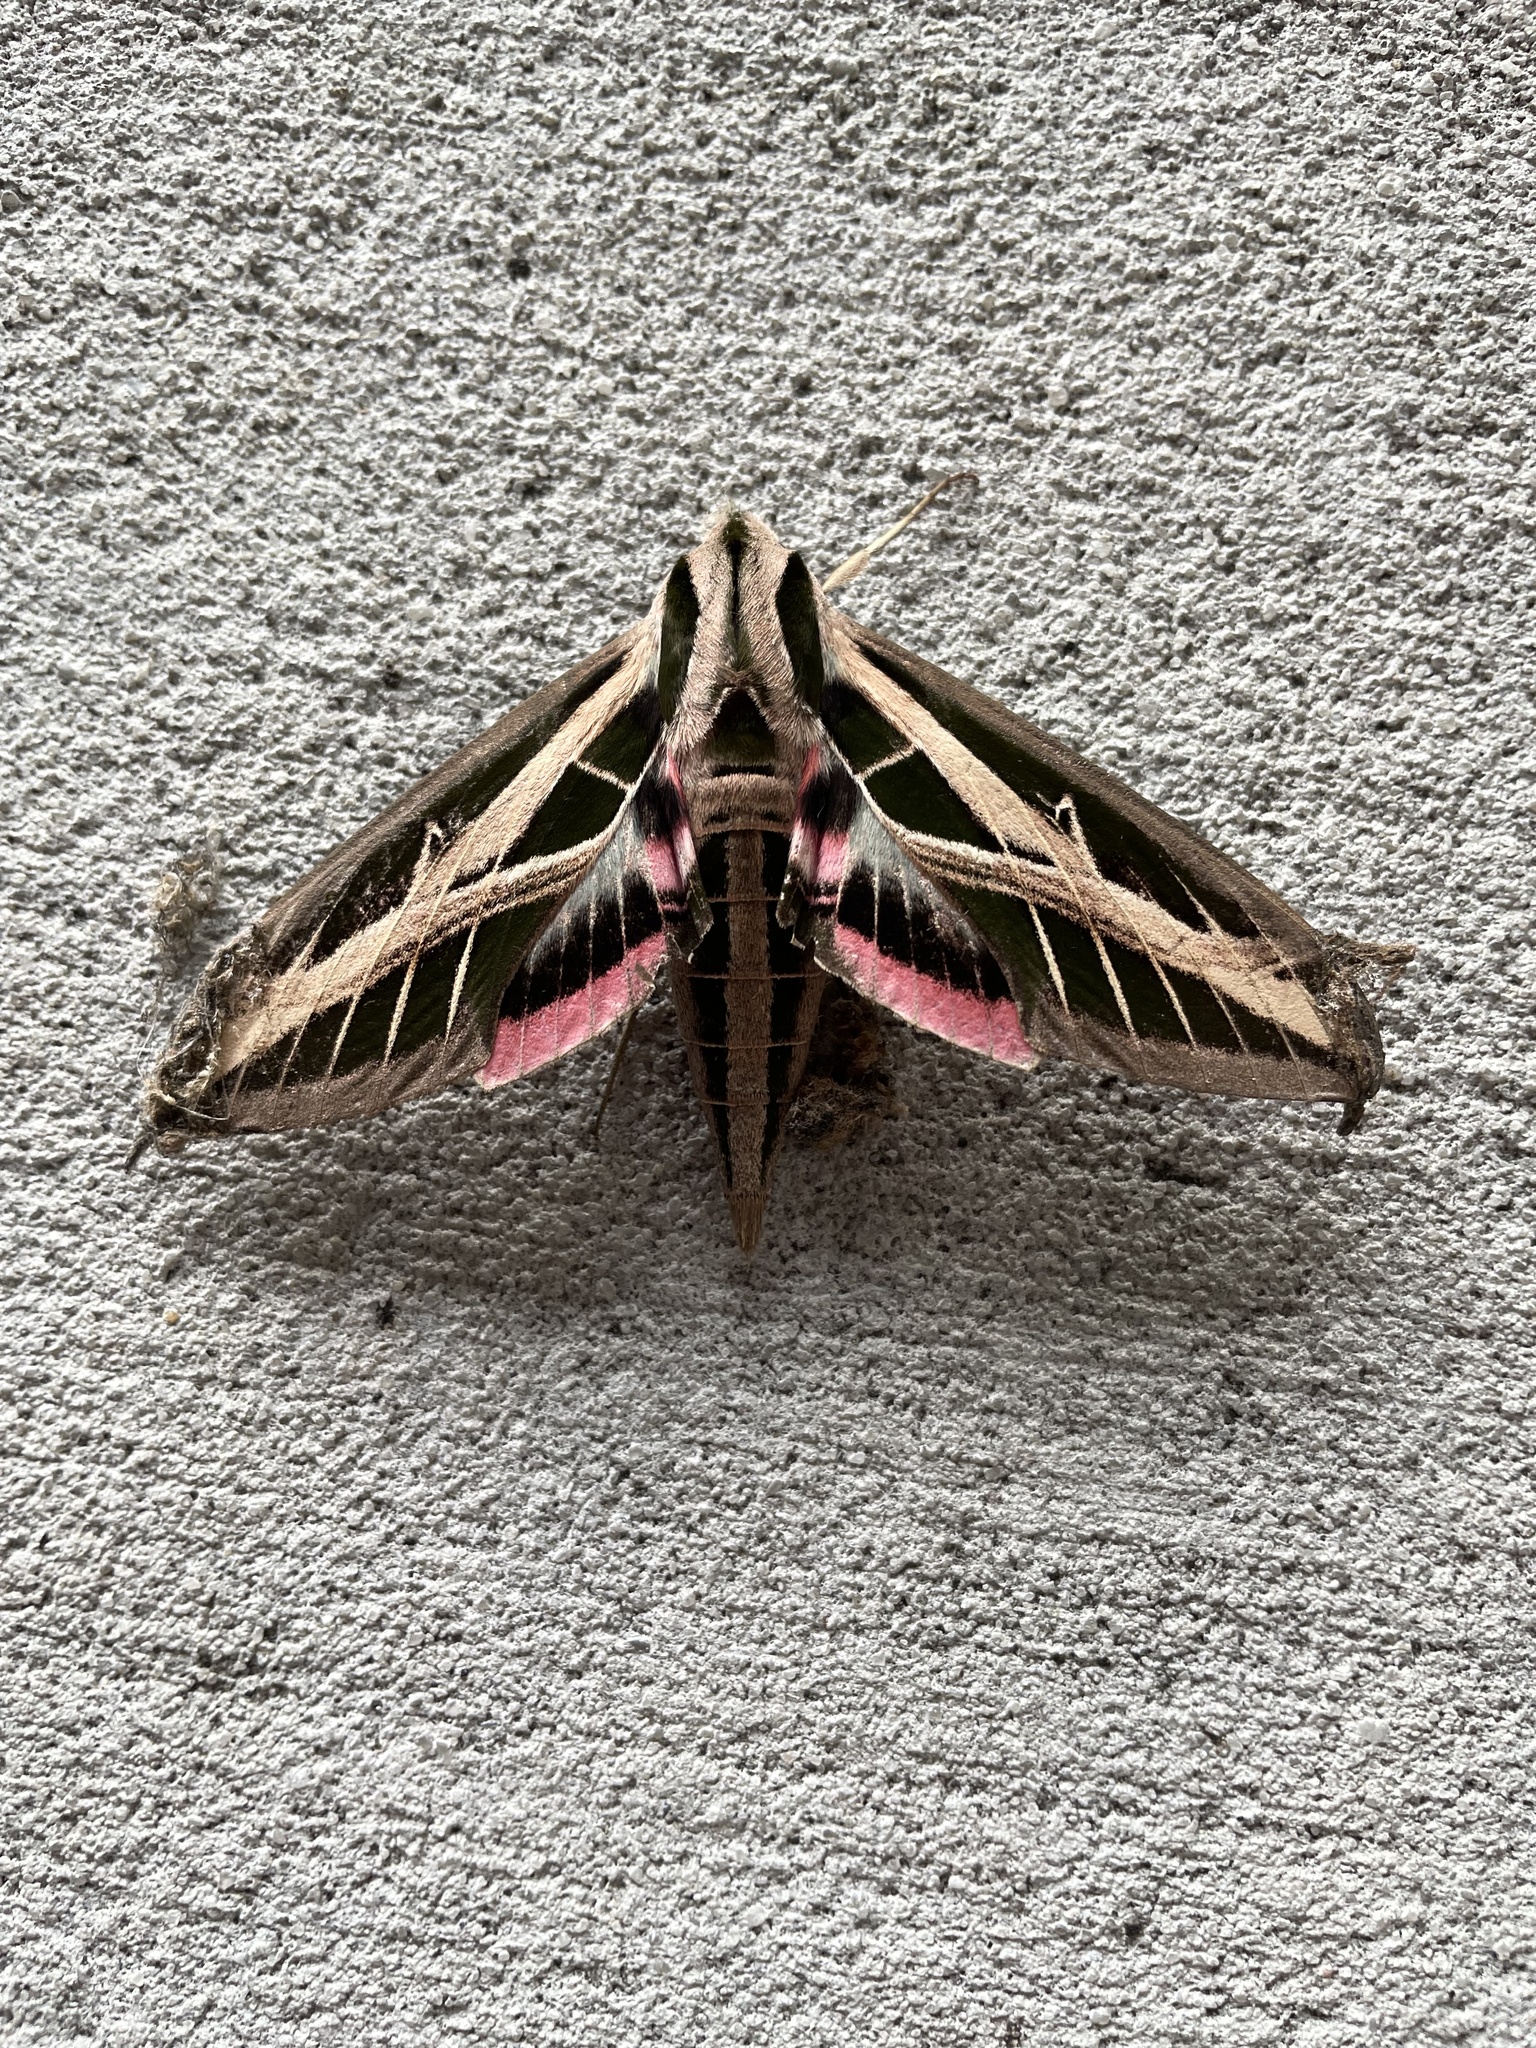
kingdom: Animalia
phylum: Arthropoda
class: Insecta
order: Lepidoptera
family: Sphingidae
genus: Eumorpha
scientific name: Eumorpha fasciatus
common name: Banded sphinx
